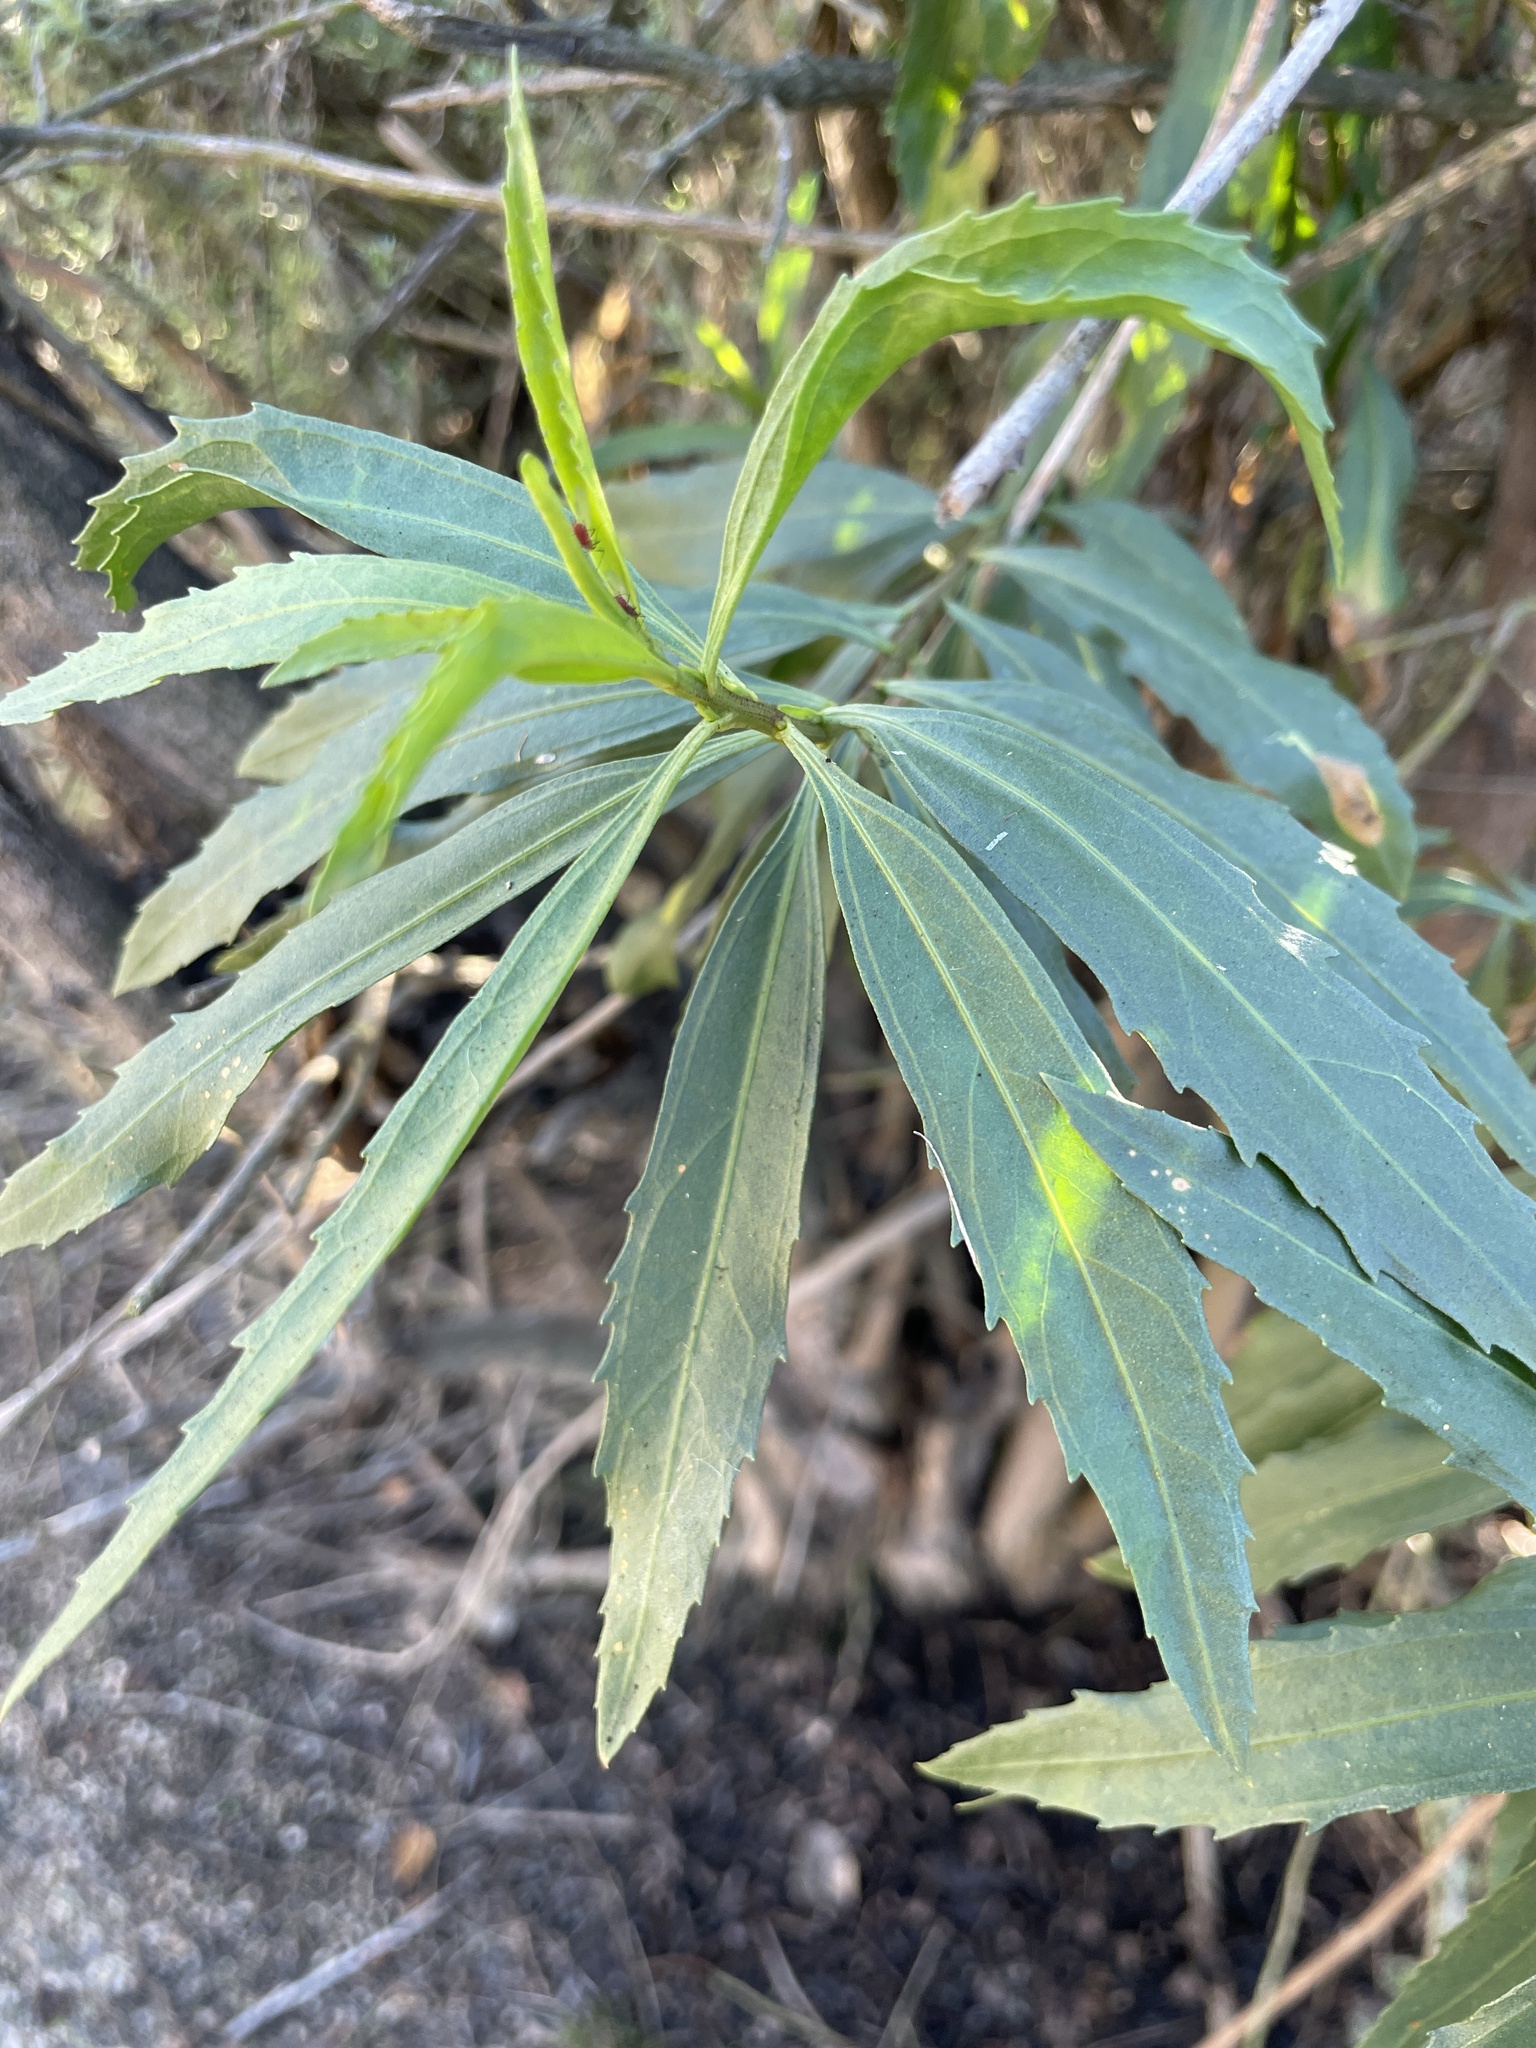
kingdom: Plantae
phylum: Tracheophyta
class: Magnoliopsida
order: Asterales
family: Asteraceae
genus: Baccharis
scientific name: Baccharis salicifolia
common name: Sticky baccharis
